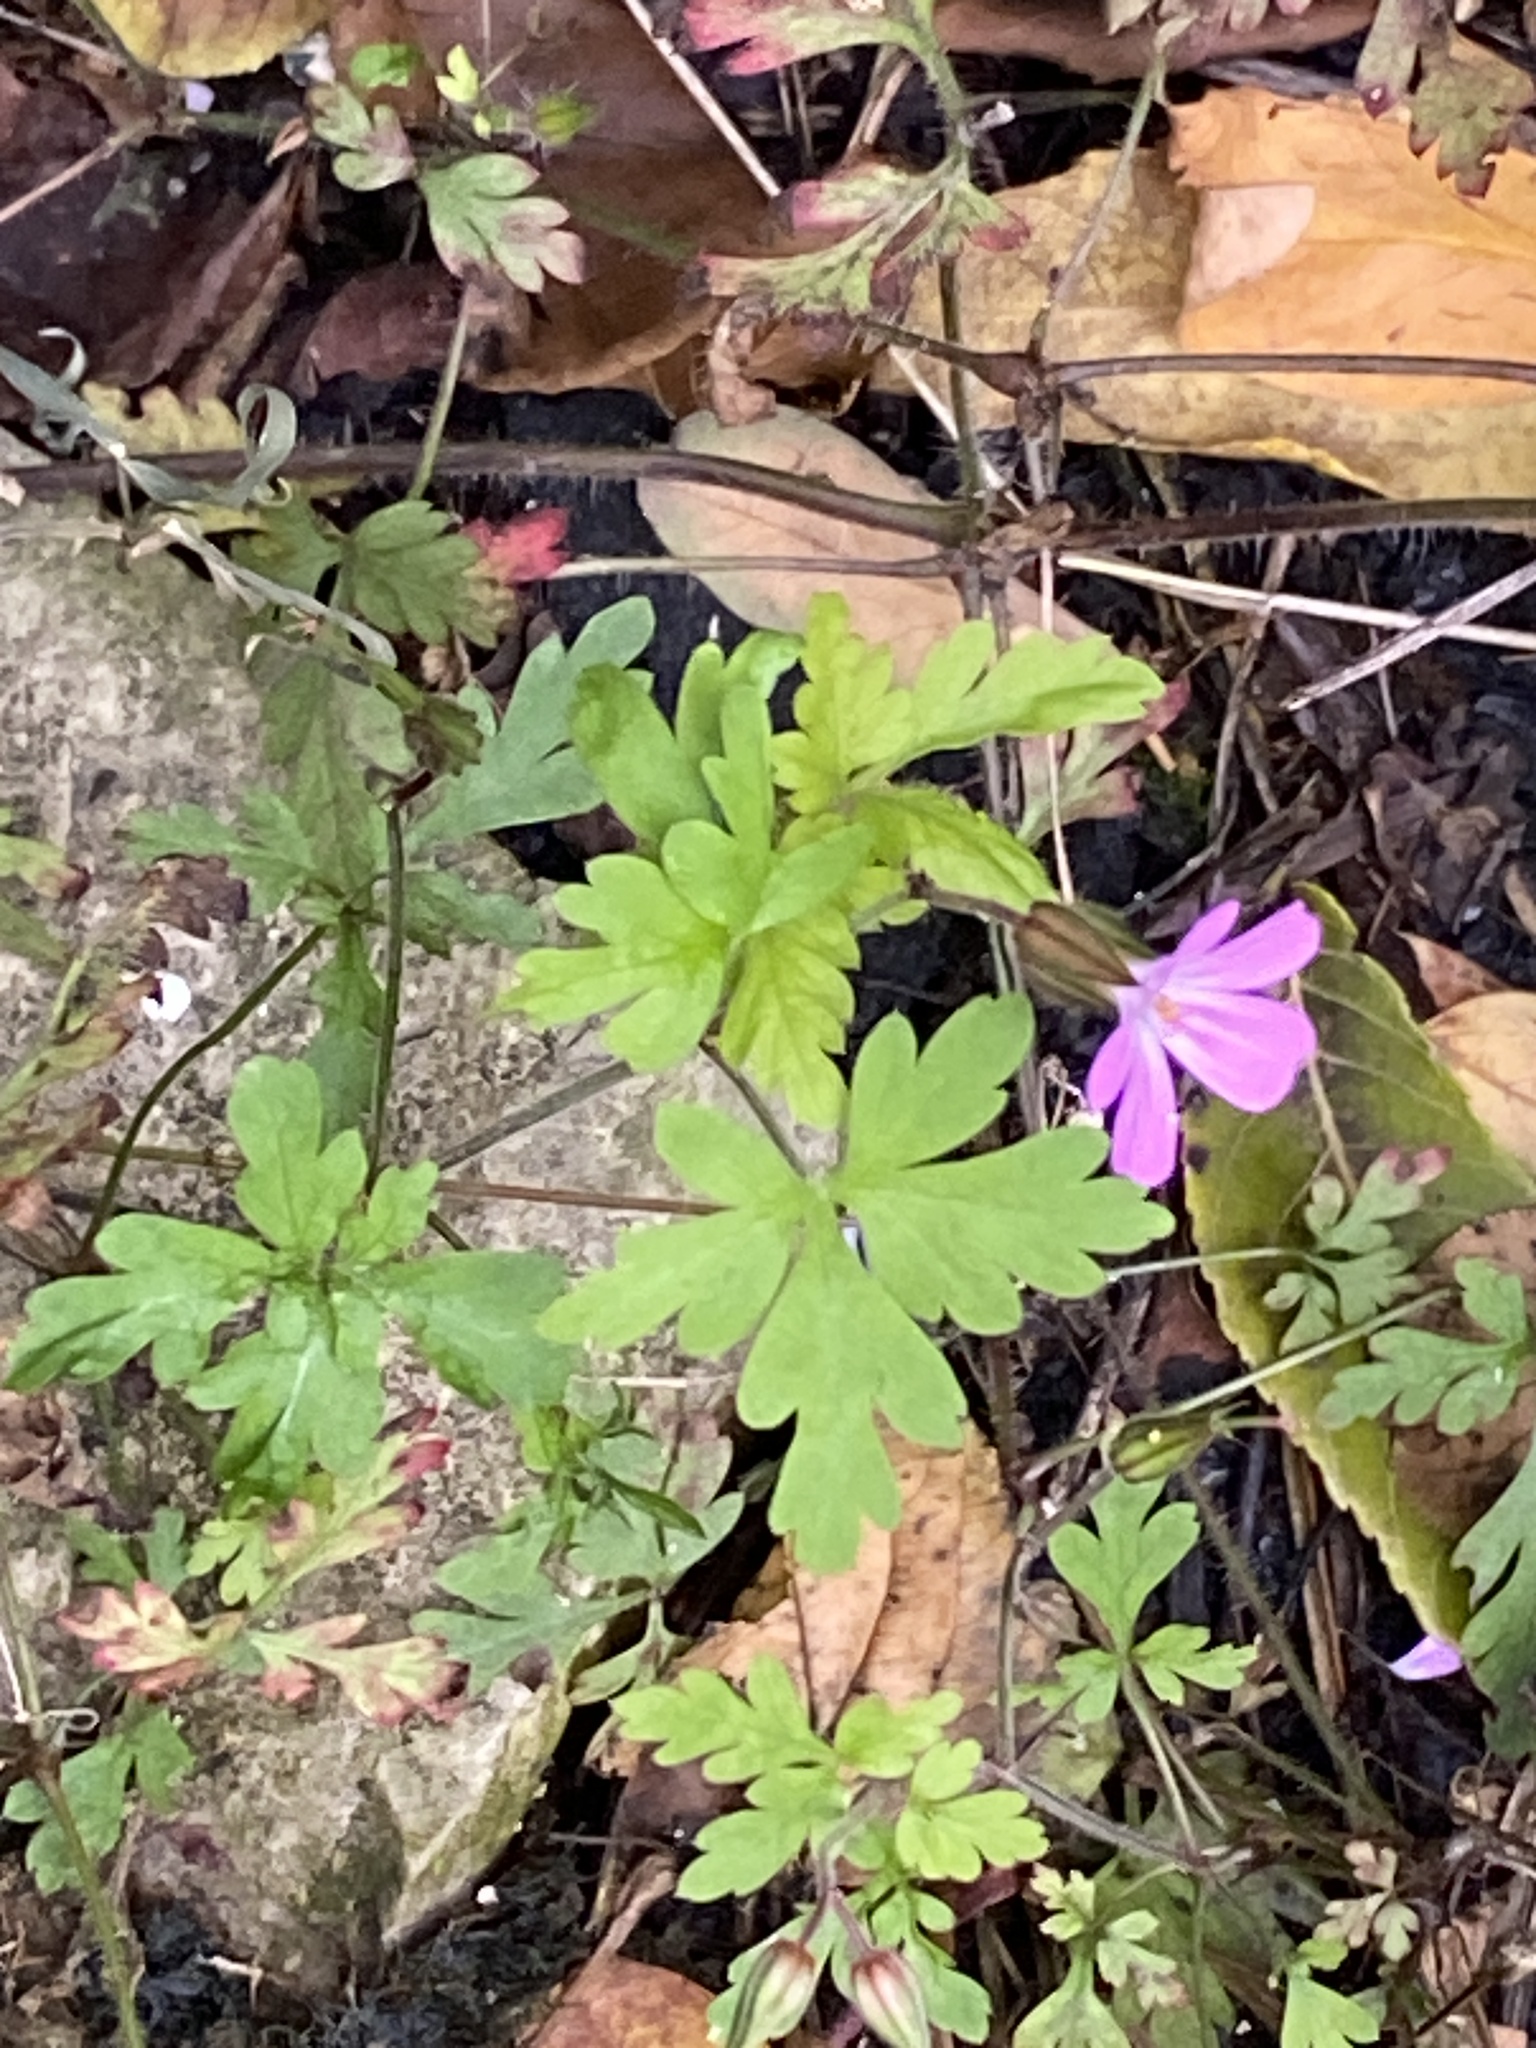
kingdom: Plantae
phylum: Tracheophyta
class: Magnoliopsida
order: Geraniales
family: Geraniaceae
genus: Geranium
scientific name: Geranium robertianum
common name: Herb-robert
